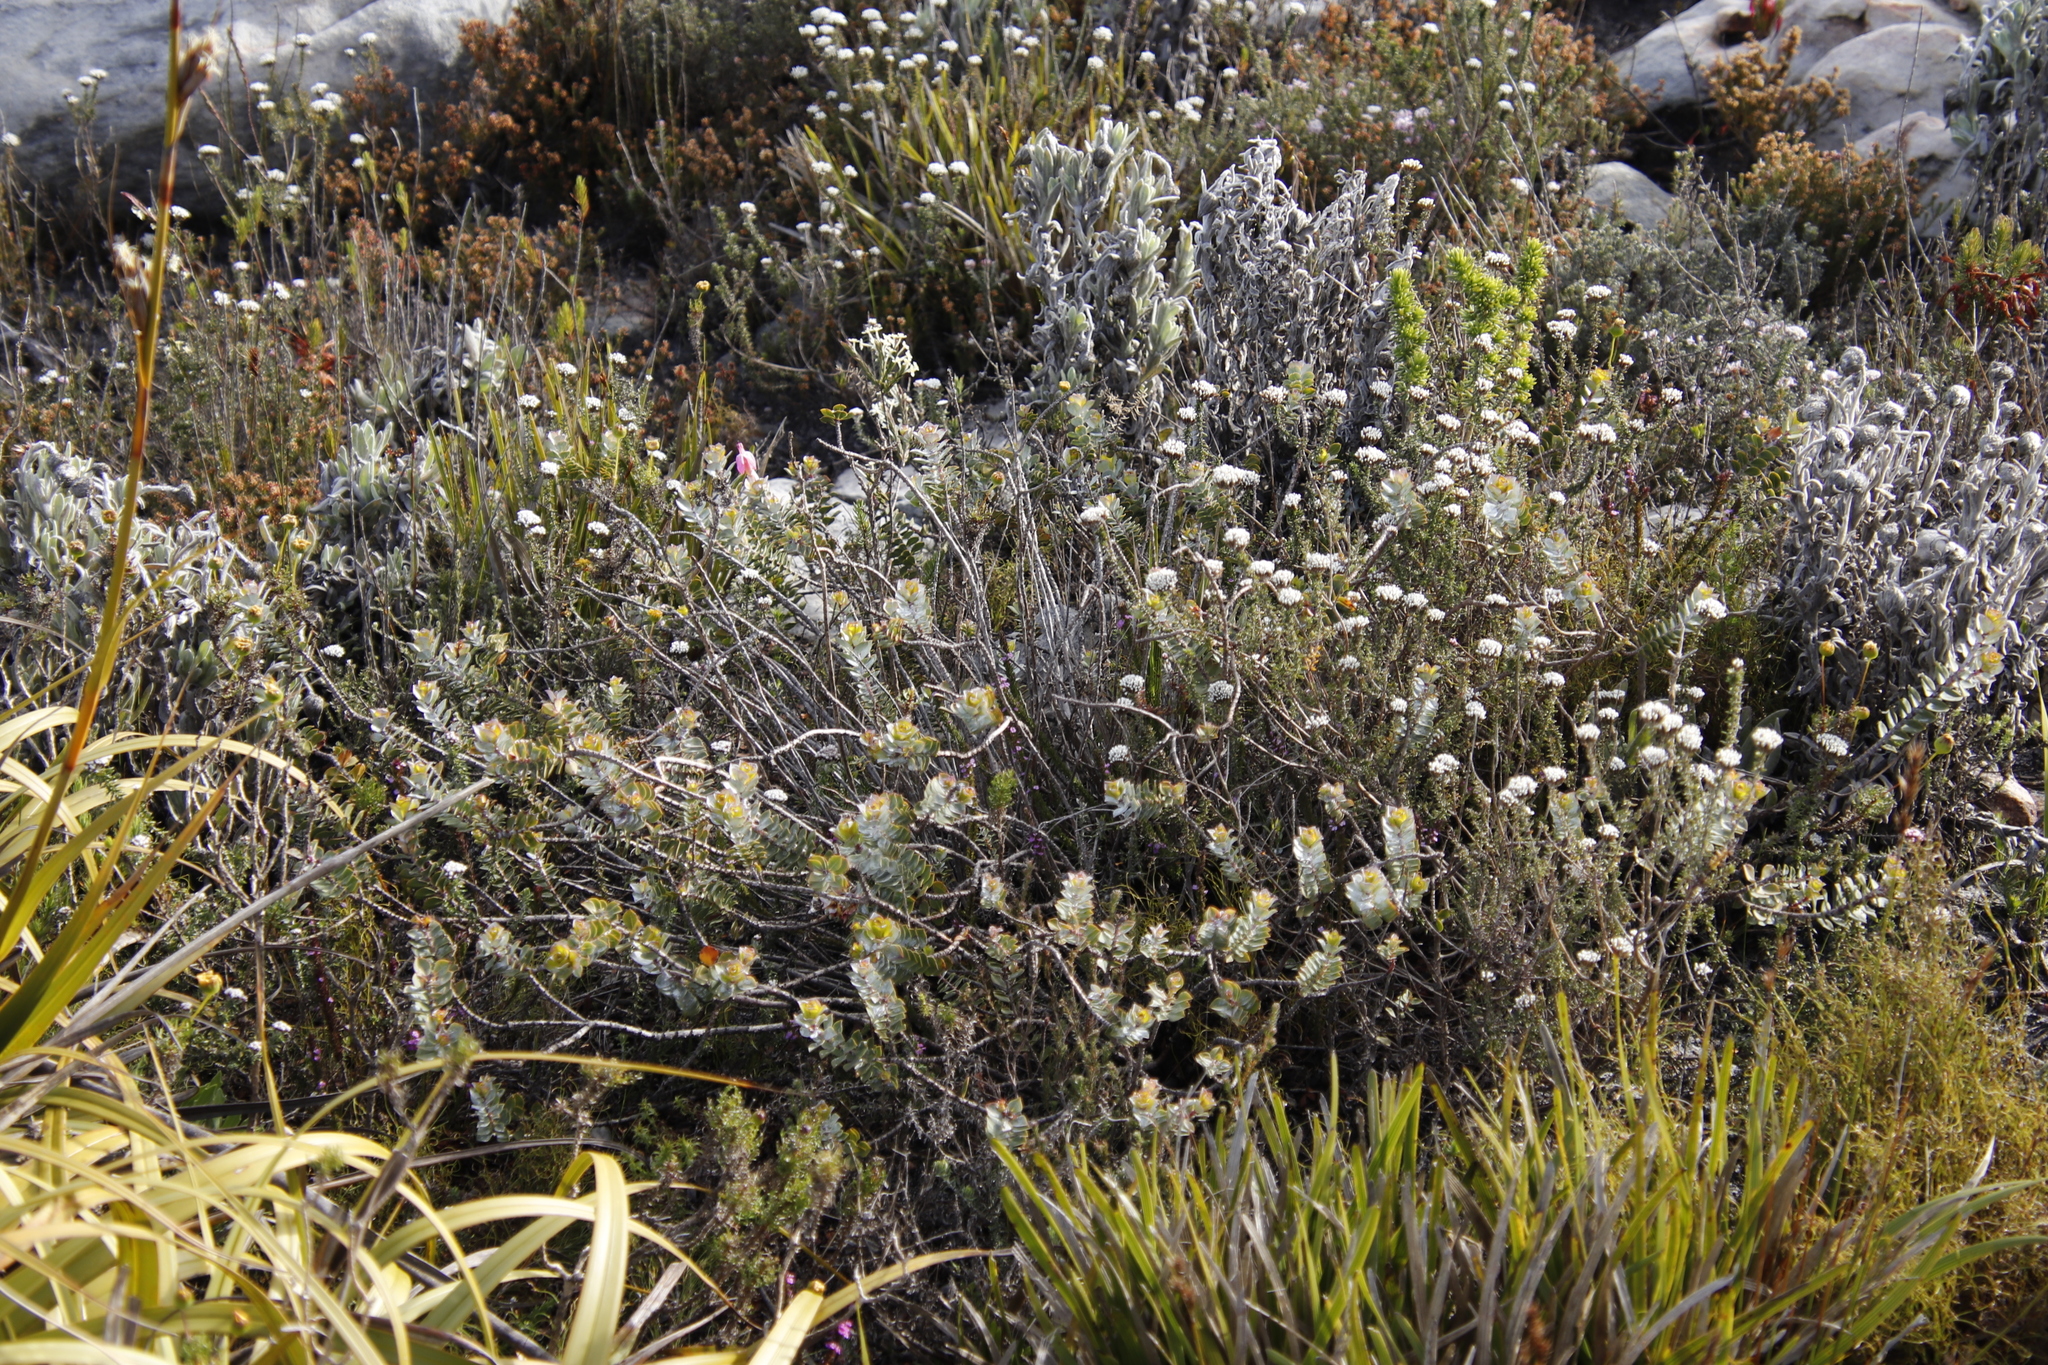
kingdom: Plantae
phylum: Tracheophyta
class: Magnoliopsida
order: Myrtales
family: Penaeaceae
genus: Saltera
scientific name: Saltera sarcocolla
